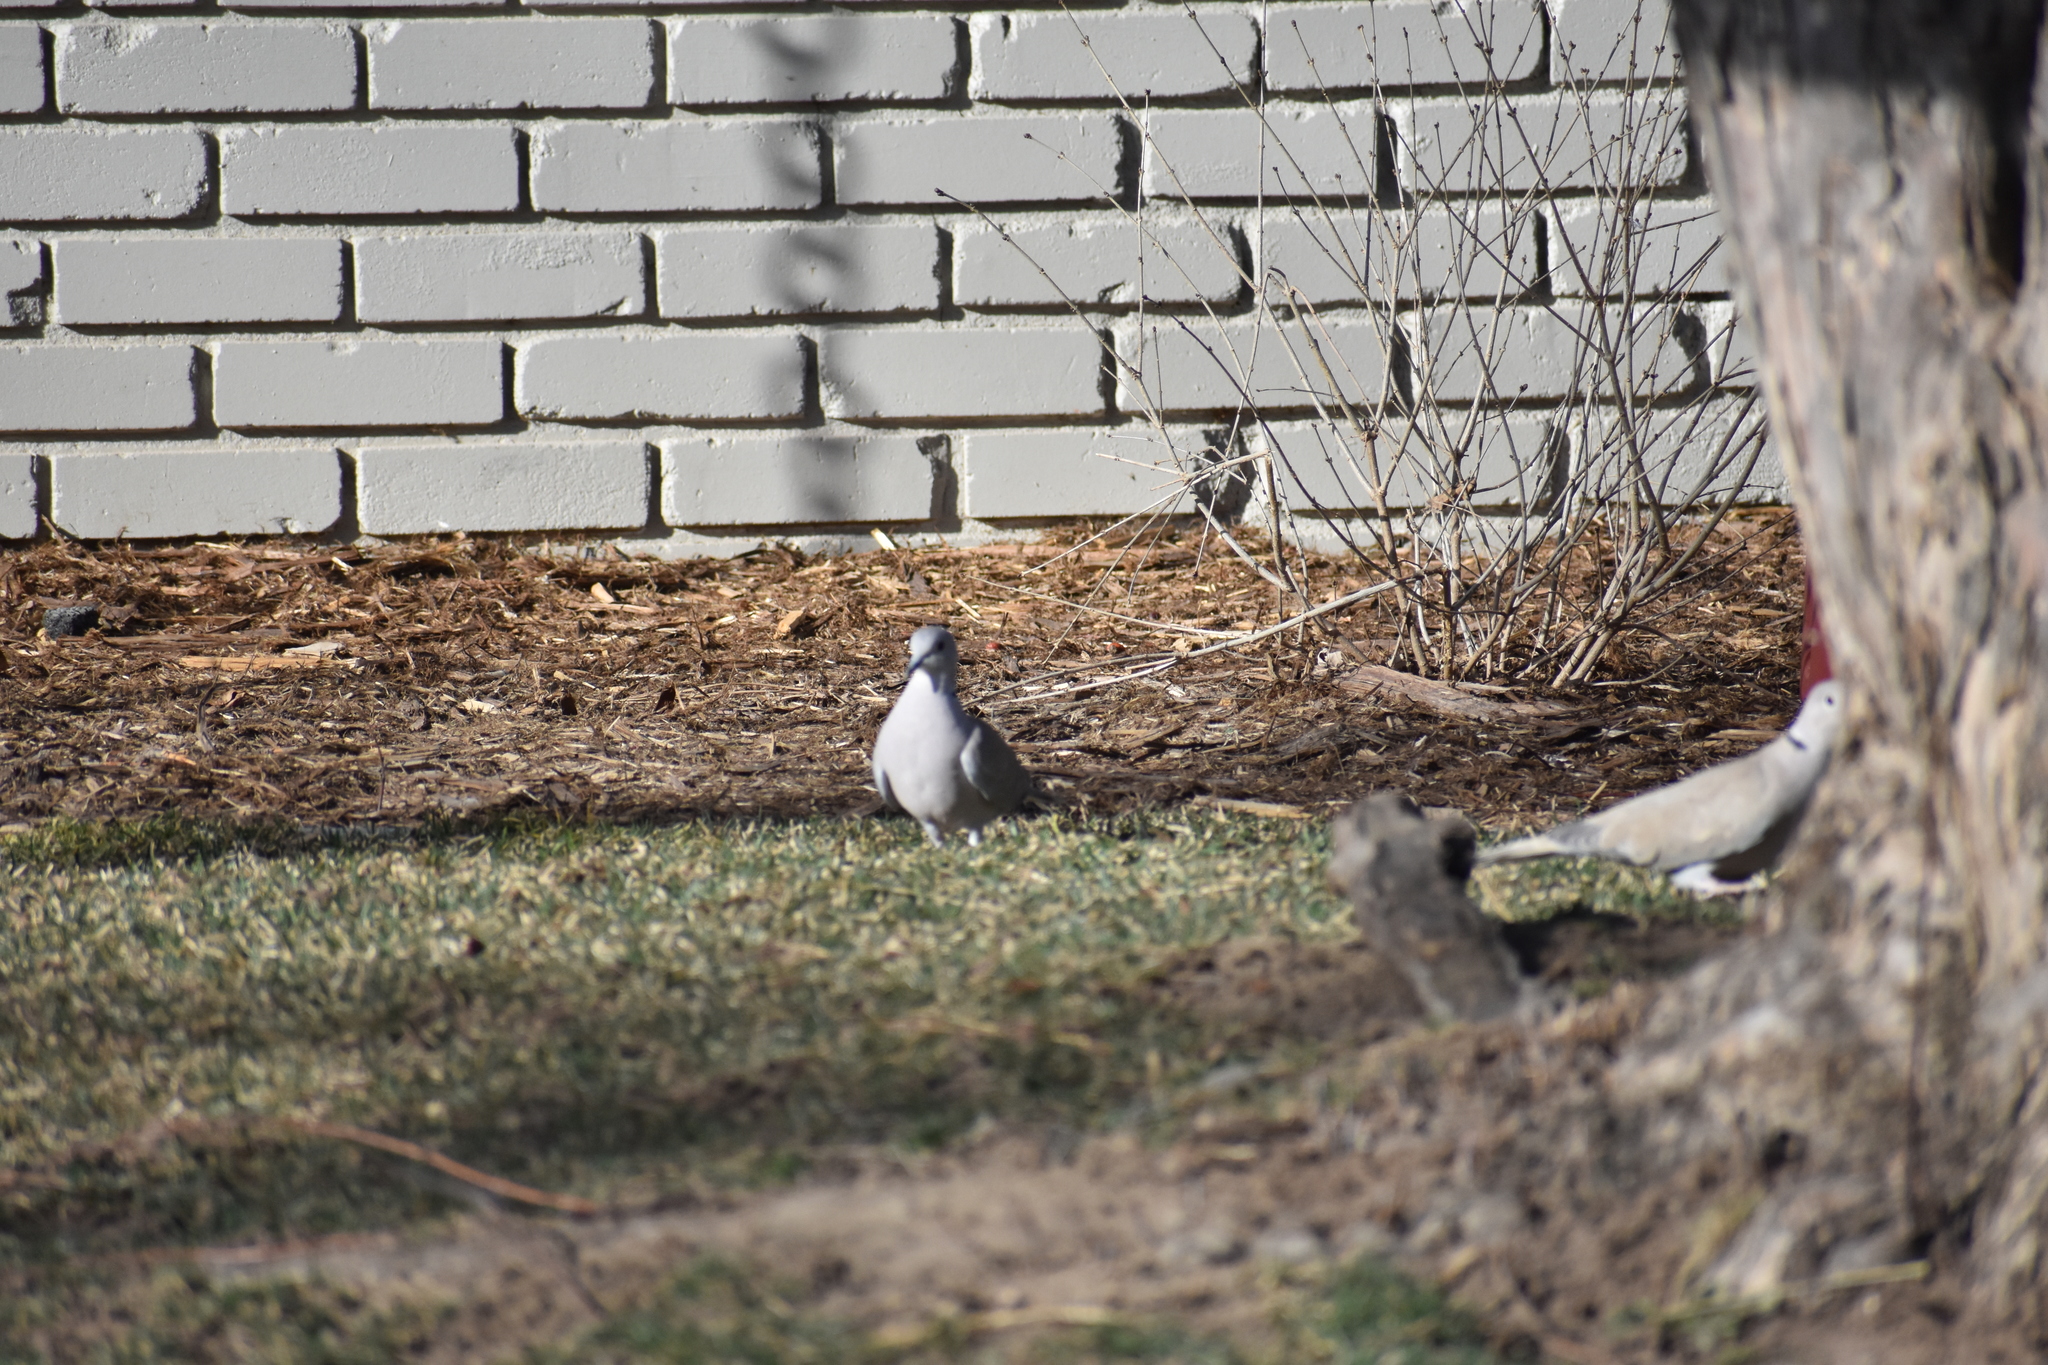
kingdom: Animalia
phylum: Chordata
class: Aves
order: Columbiformes
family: Columbidae
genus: Streptopelia
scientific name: Streptopelia decaocto
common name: Eurasian collared dove
